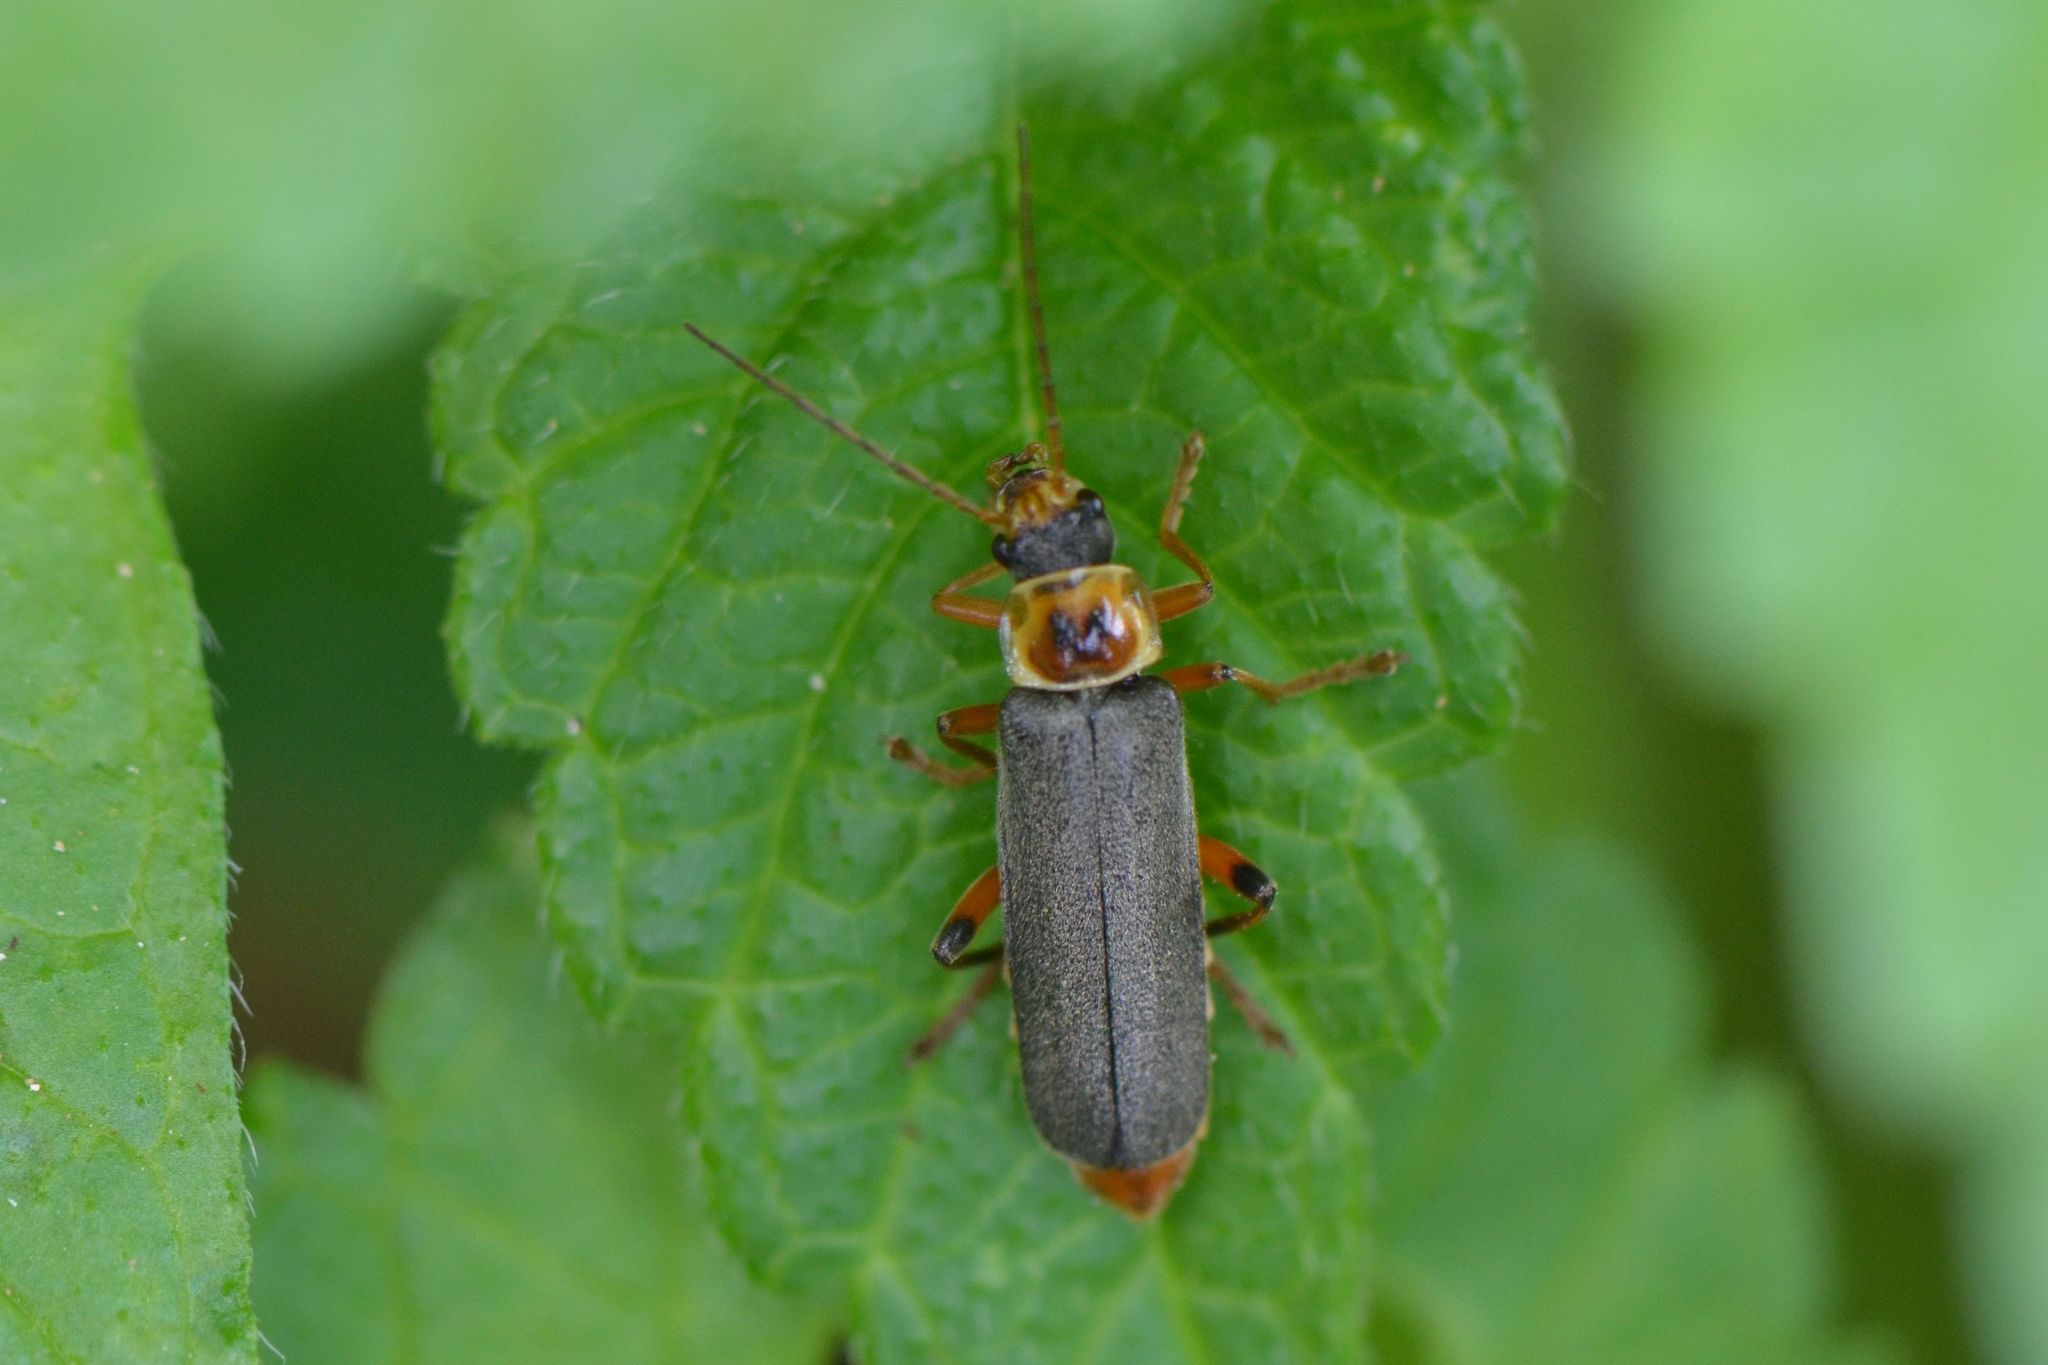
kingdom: Animalia
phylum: Arthropoda
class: Insecta
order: Coleoptera
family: Cantharidae
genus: Cantharis
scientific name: Cantharis nigricans
